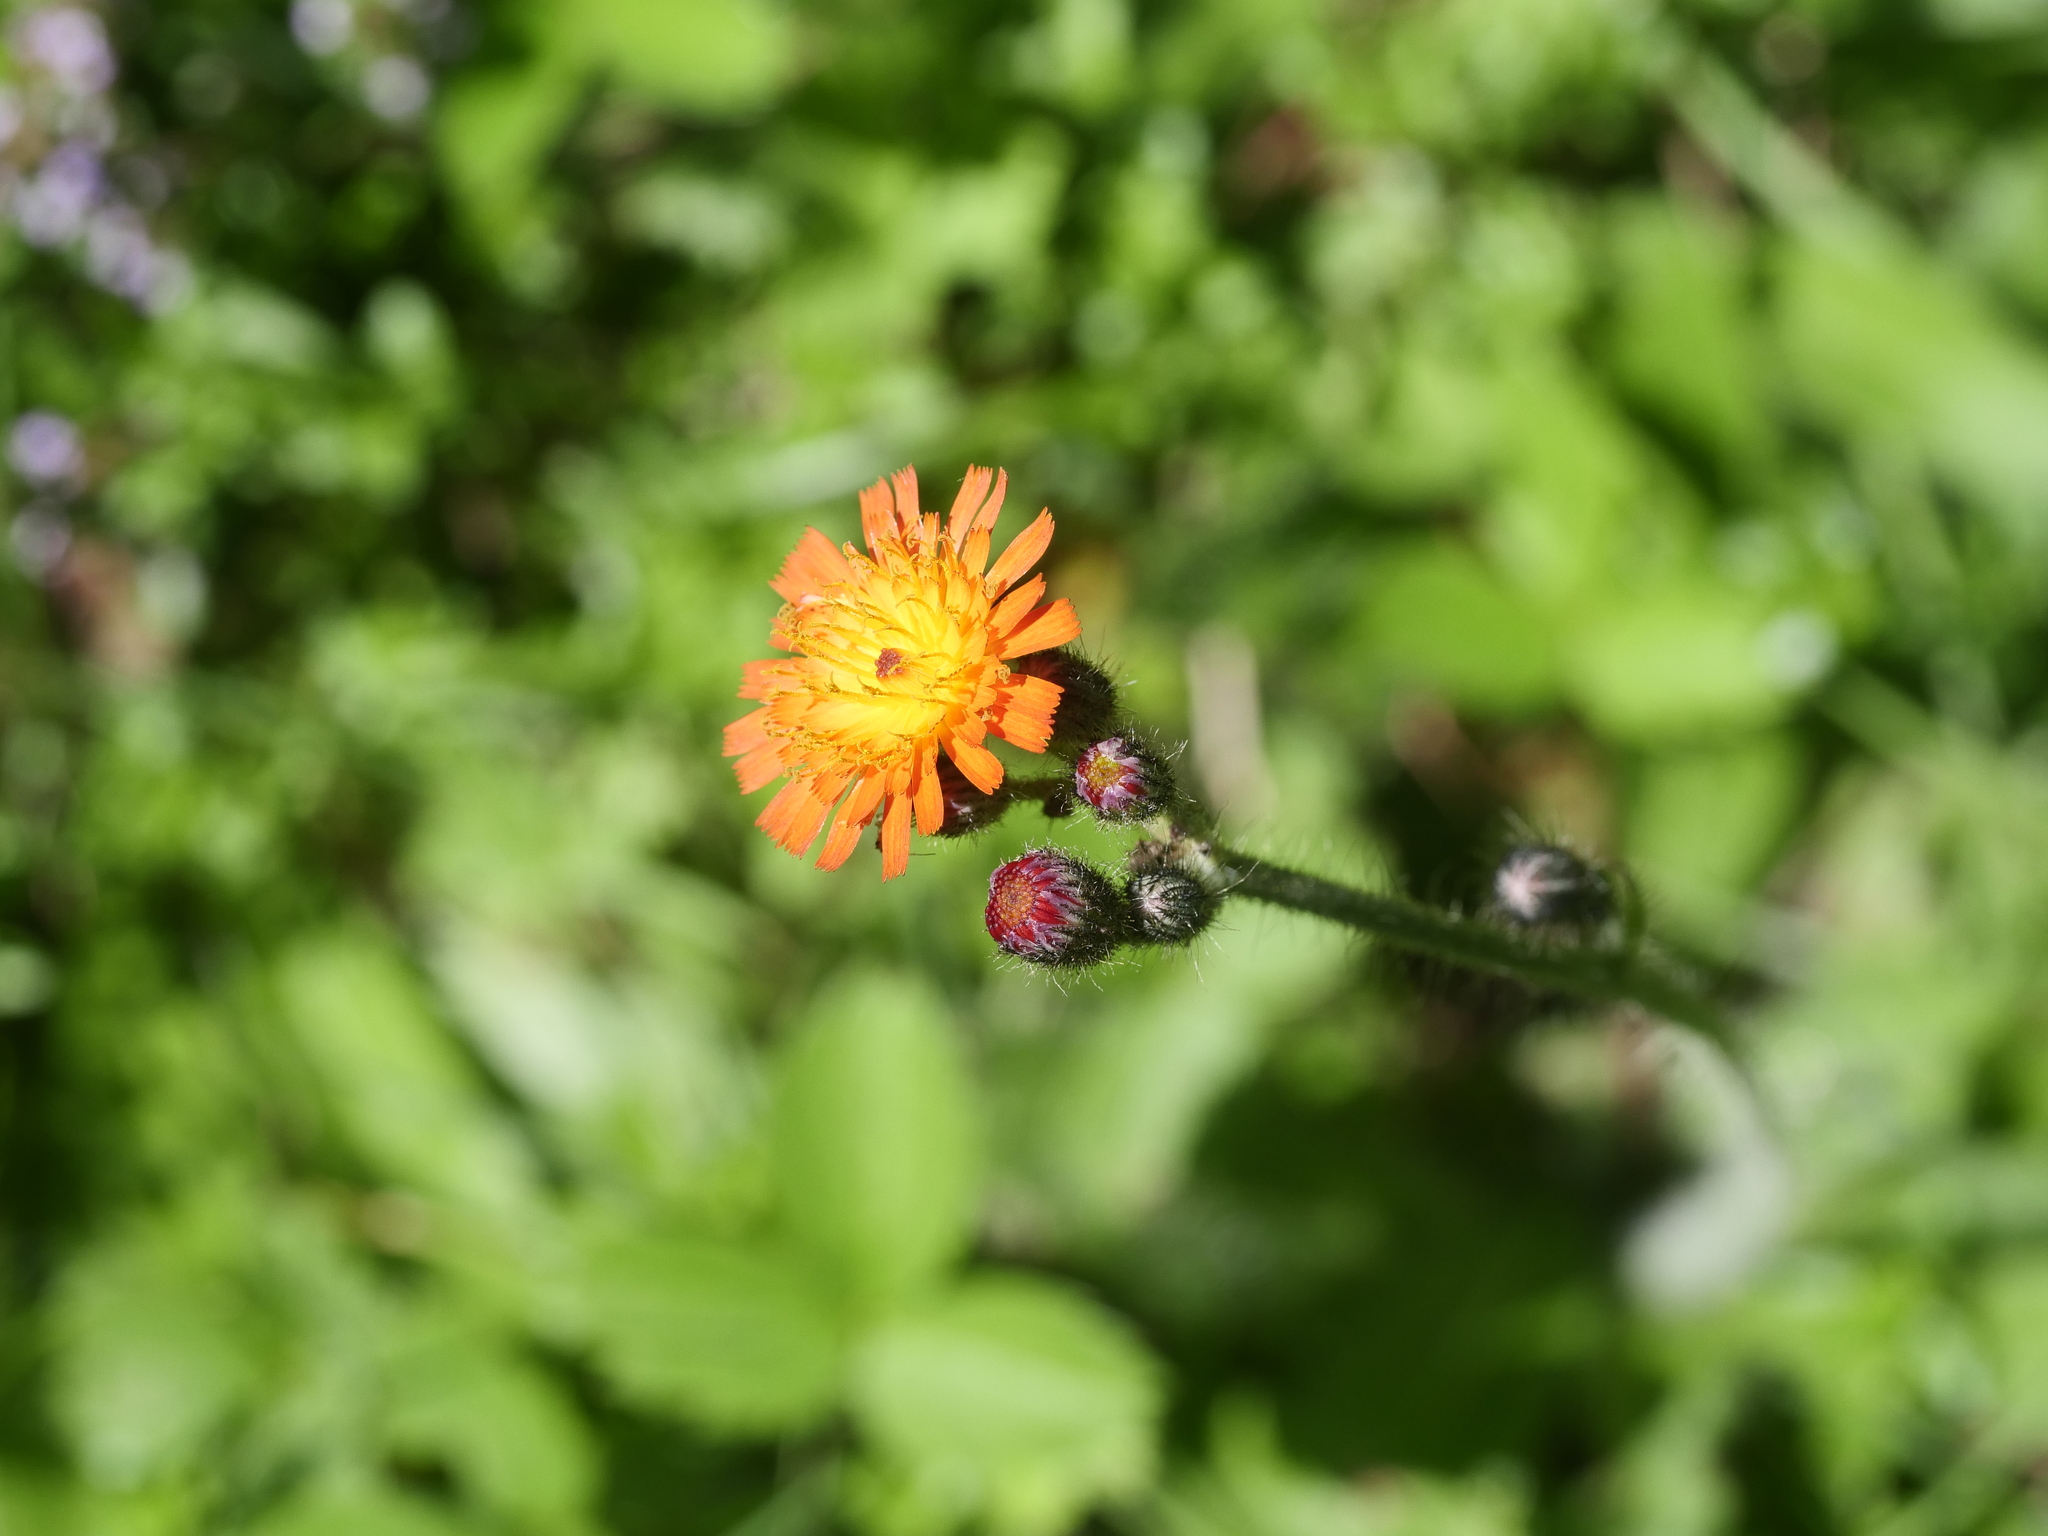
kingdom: Plantae
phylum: Tracheophyta
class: Magnoliopsida
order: Asterales
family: Asteraceae
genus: Pilosella
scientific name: Pilosella aurantiaca
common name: Fox-and-cubs
